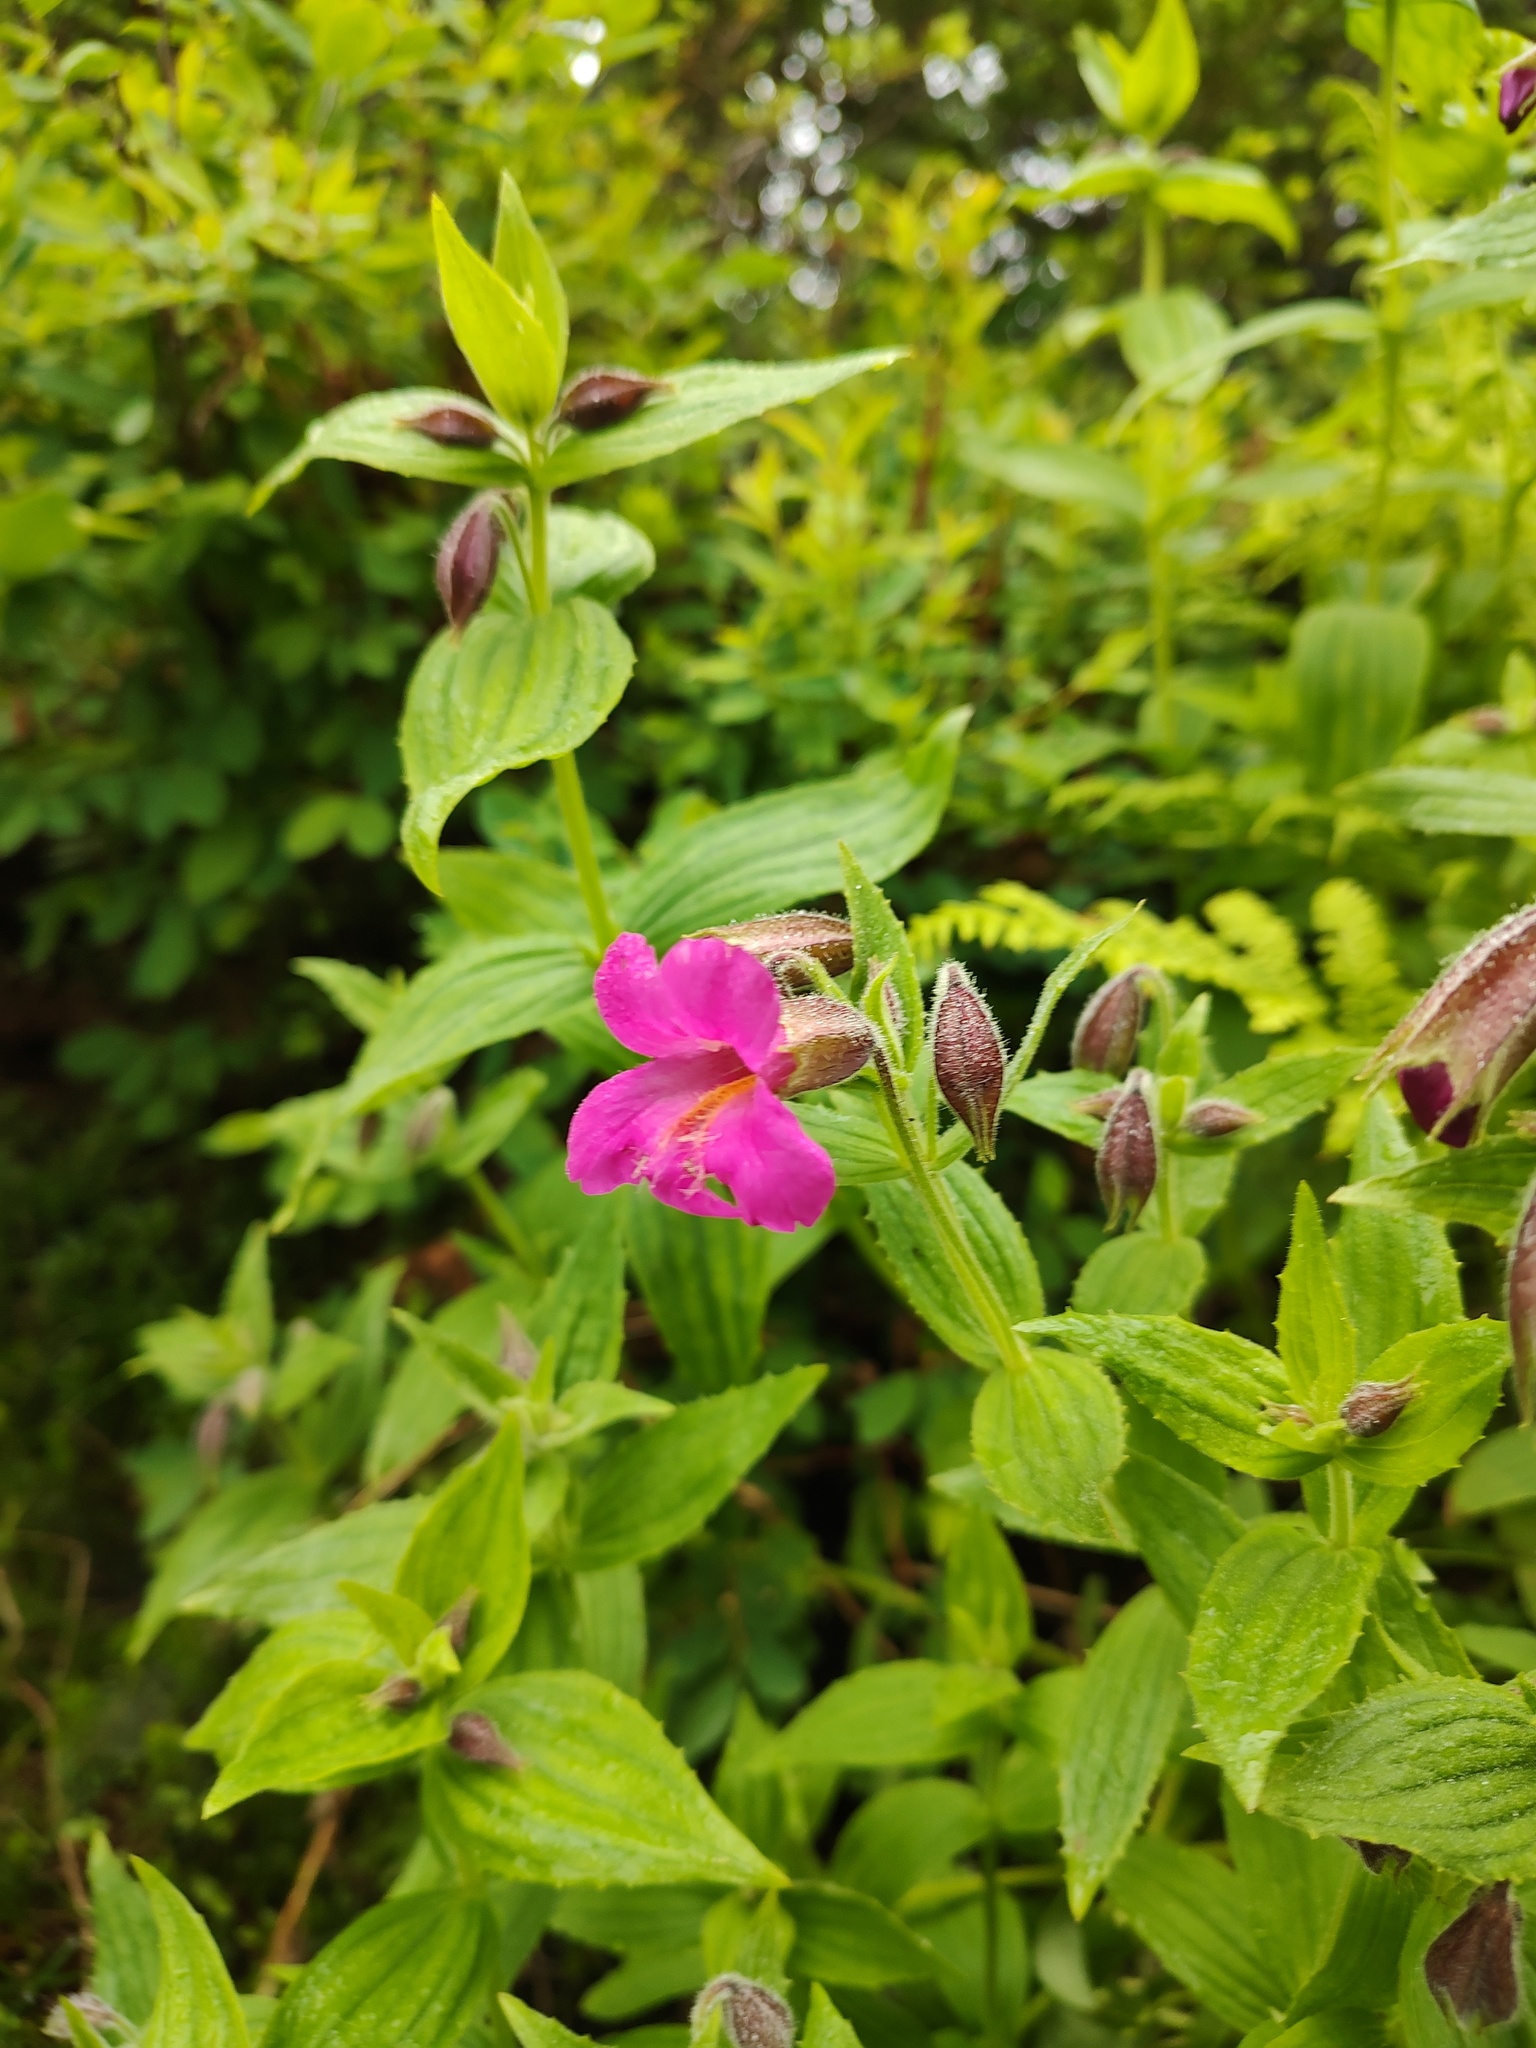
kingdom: Plantae
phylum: Tracheophyta
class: Magnoliopsida
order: Lamiales
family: Phrymaceae
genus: Erythranthe
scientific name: Erythranthe lewisii
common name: Lewis's monkey-flower
